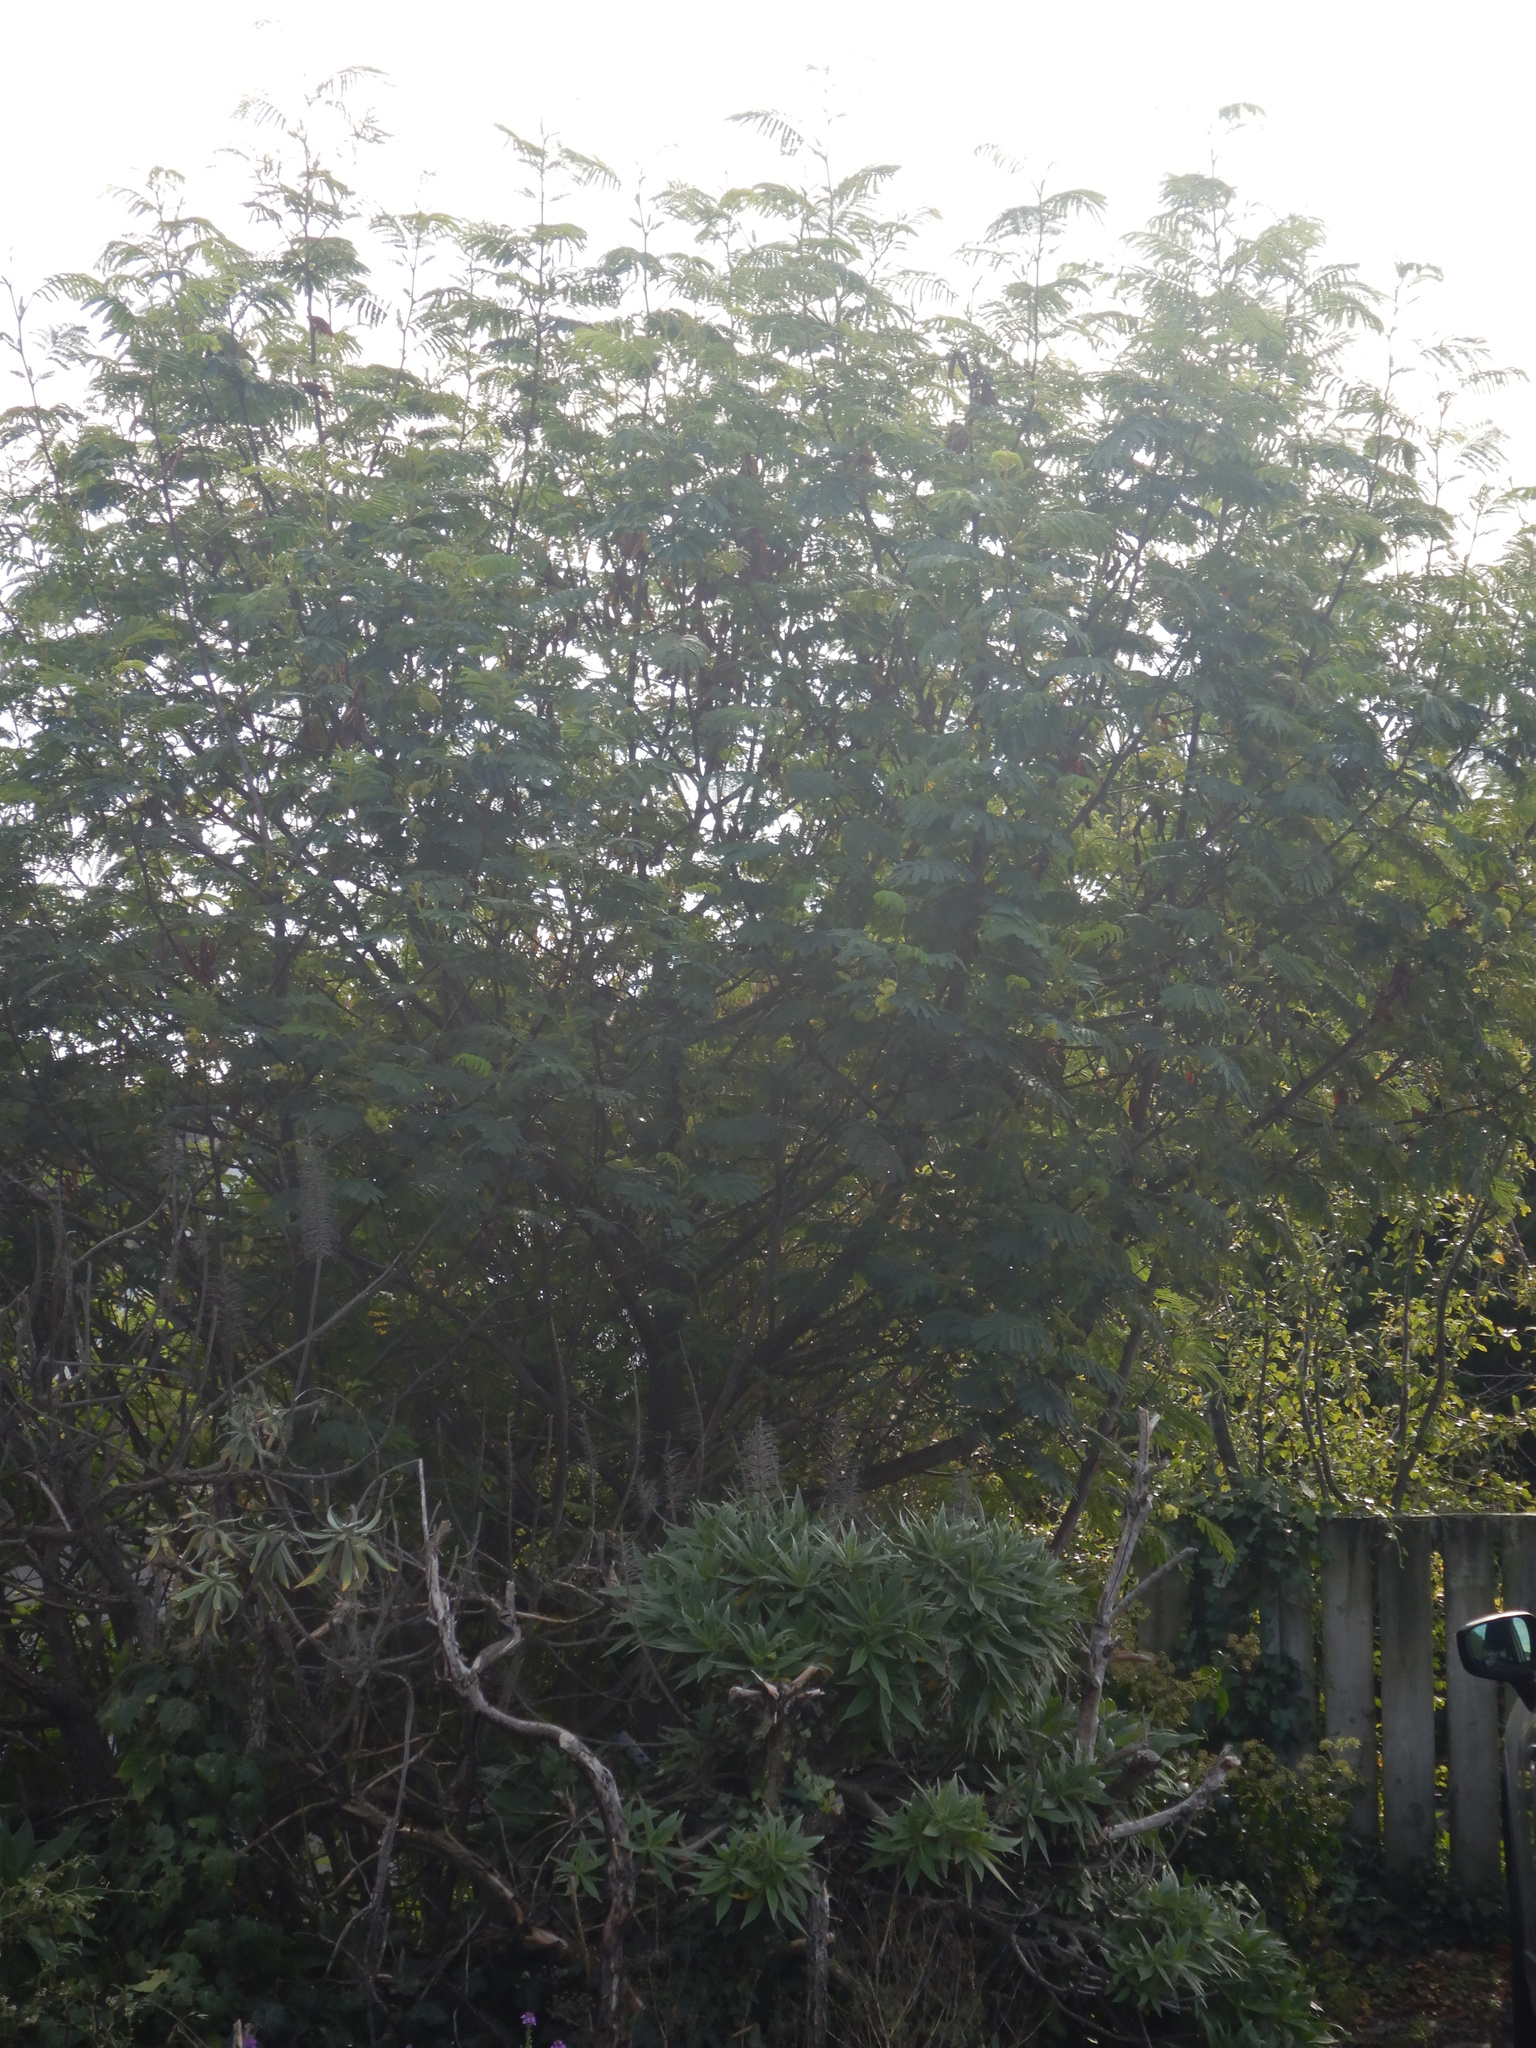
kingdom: Plantae
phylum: Tracheophyta
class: Magnoliopsida
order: Fabales
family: Fabaceae
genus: Paraserianthes
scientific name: Paraserianthes lophantha
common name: Plume albizia
